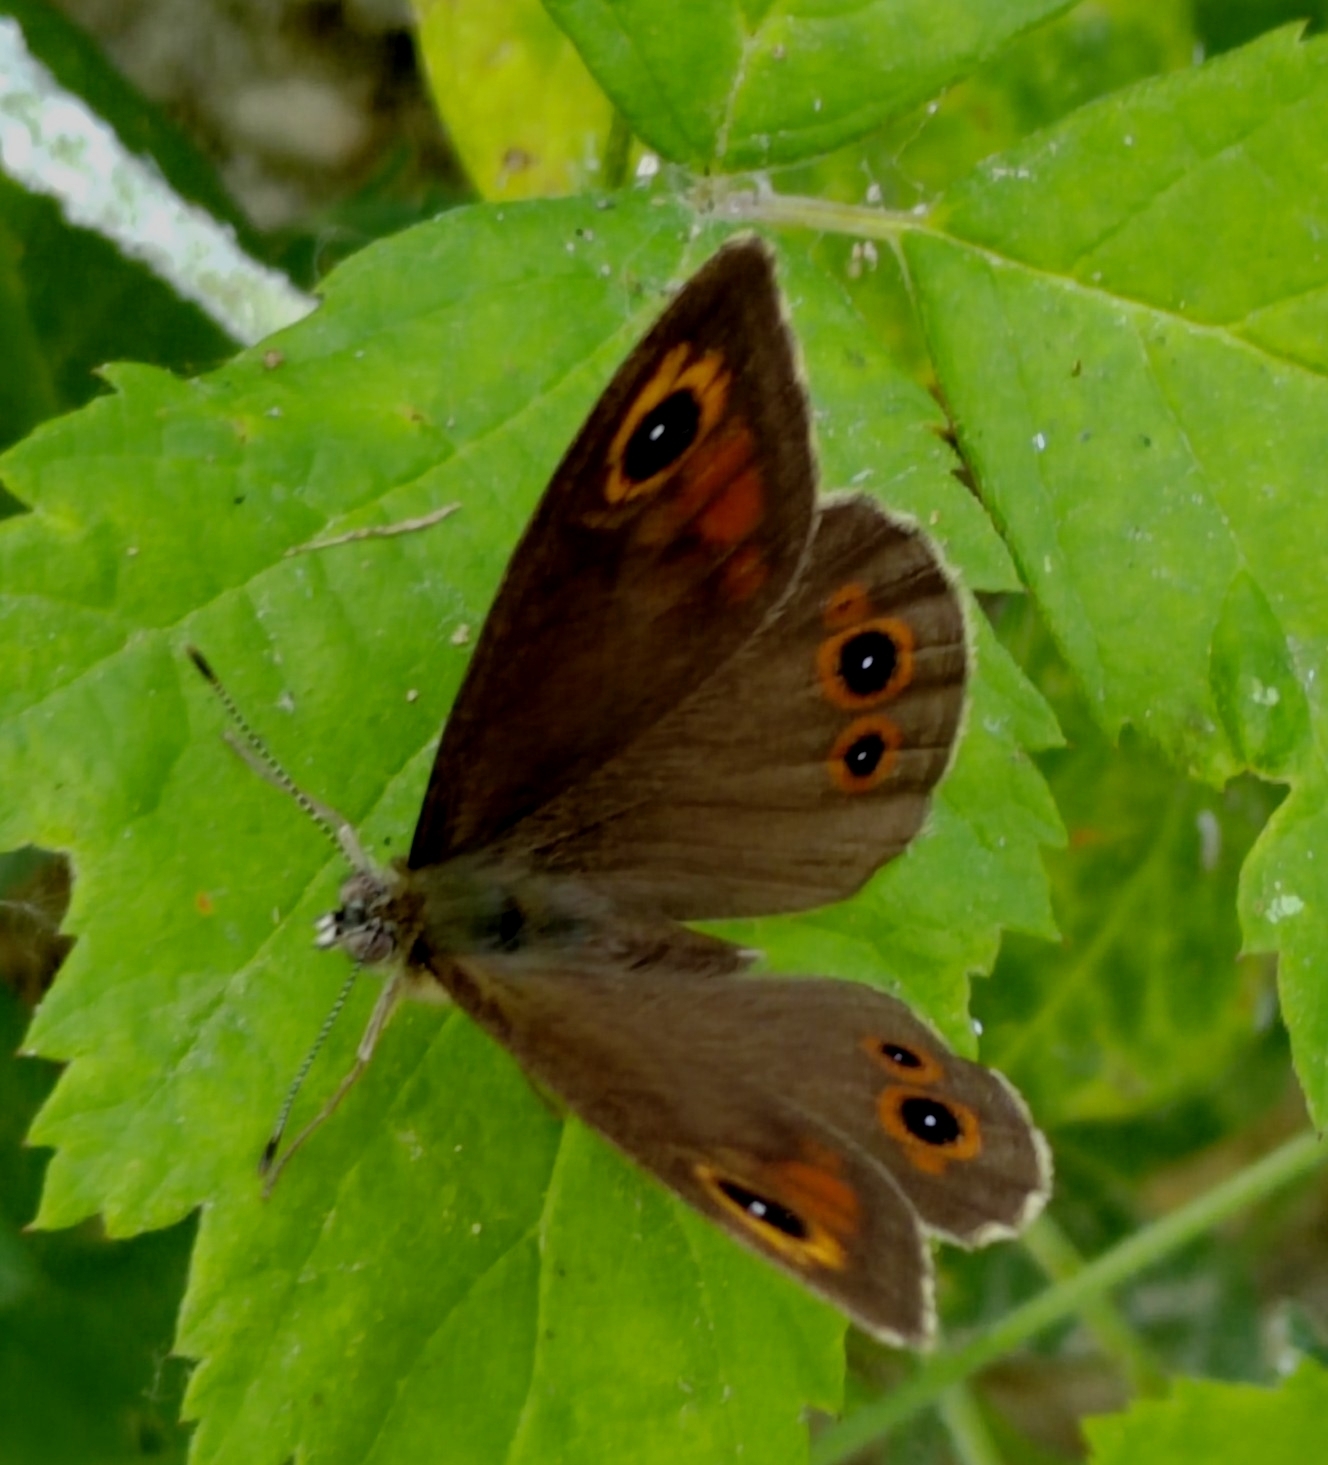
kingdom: Animalia
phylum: Arthropoda
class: Insecta
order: Lepidoptera
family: Nymphalidae
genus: Pararge
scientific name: Pararge Lasiommata maera
